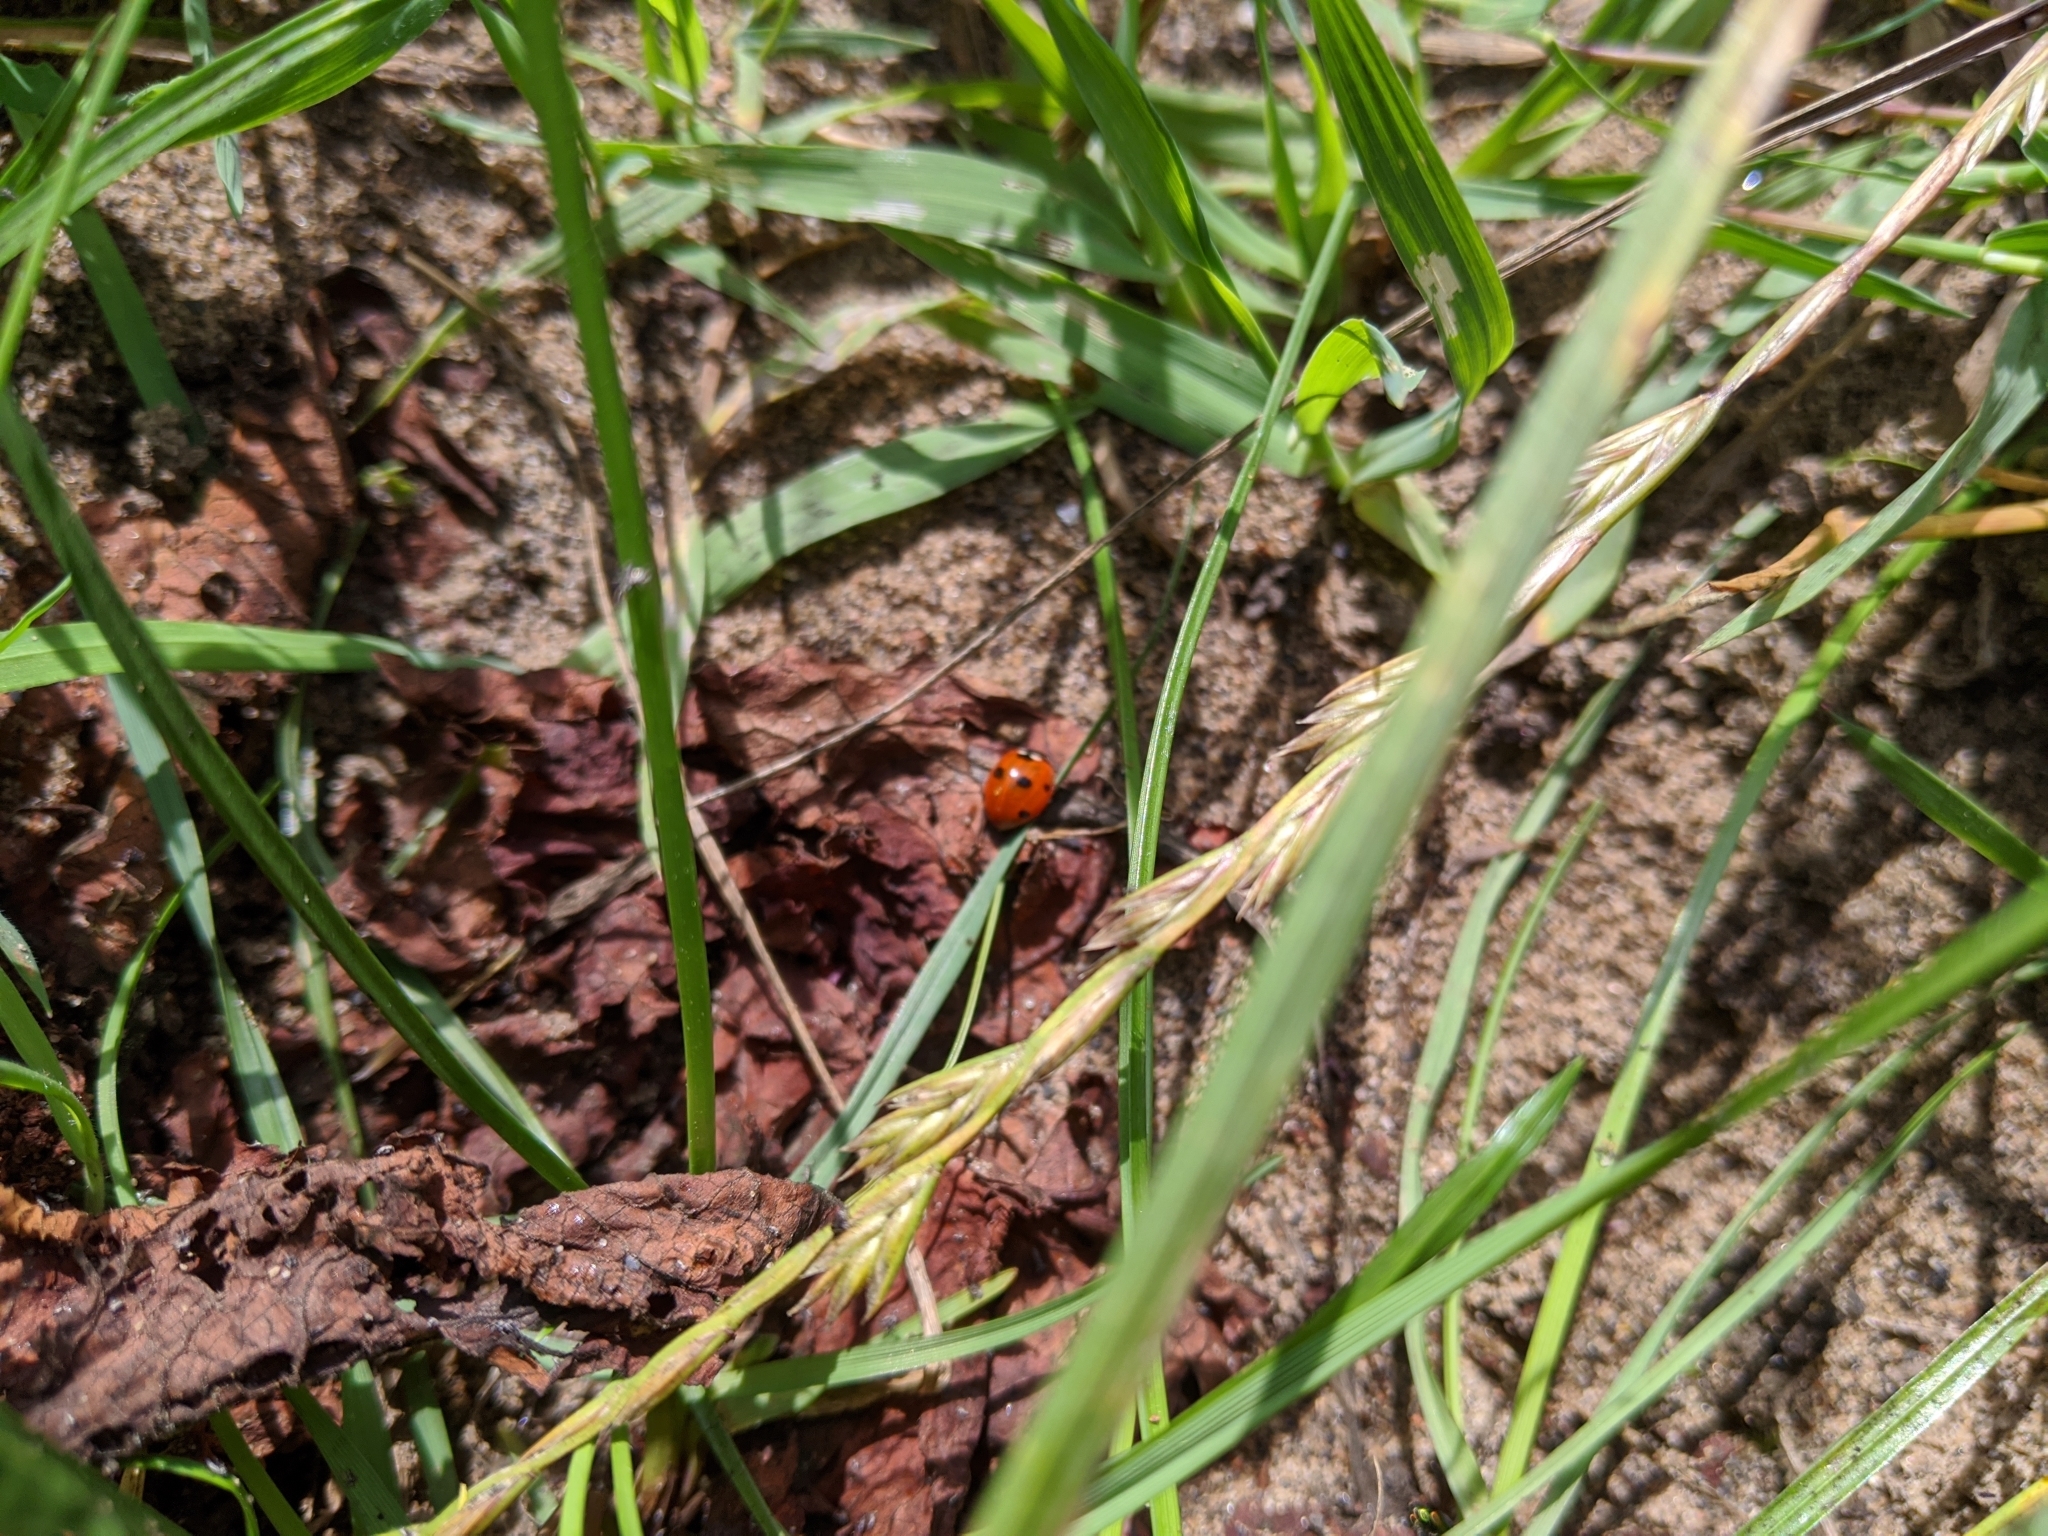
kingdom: Animalia
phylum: Arthropoda
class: Insecta
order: Coleoptera
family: Coccinellidae
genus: Coccinella
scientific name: Coccinella septempunctata
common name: Sevenspotted lady beetle
